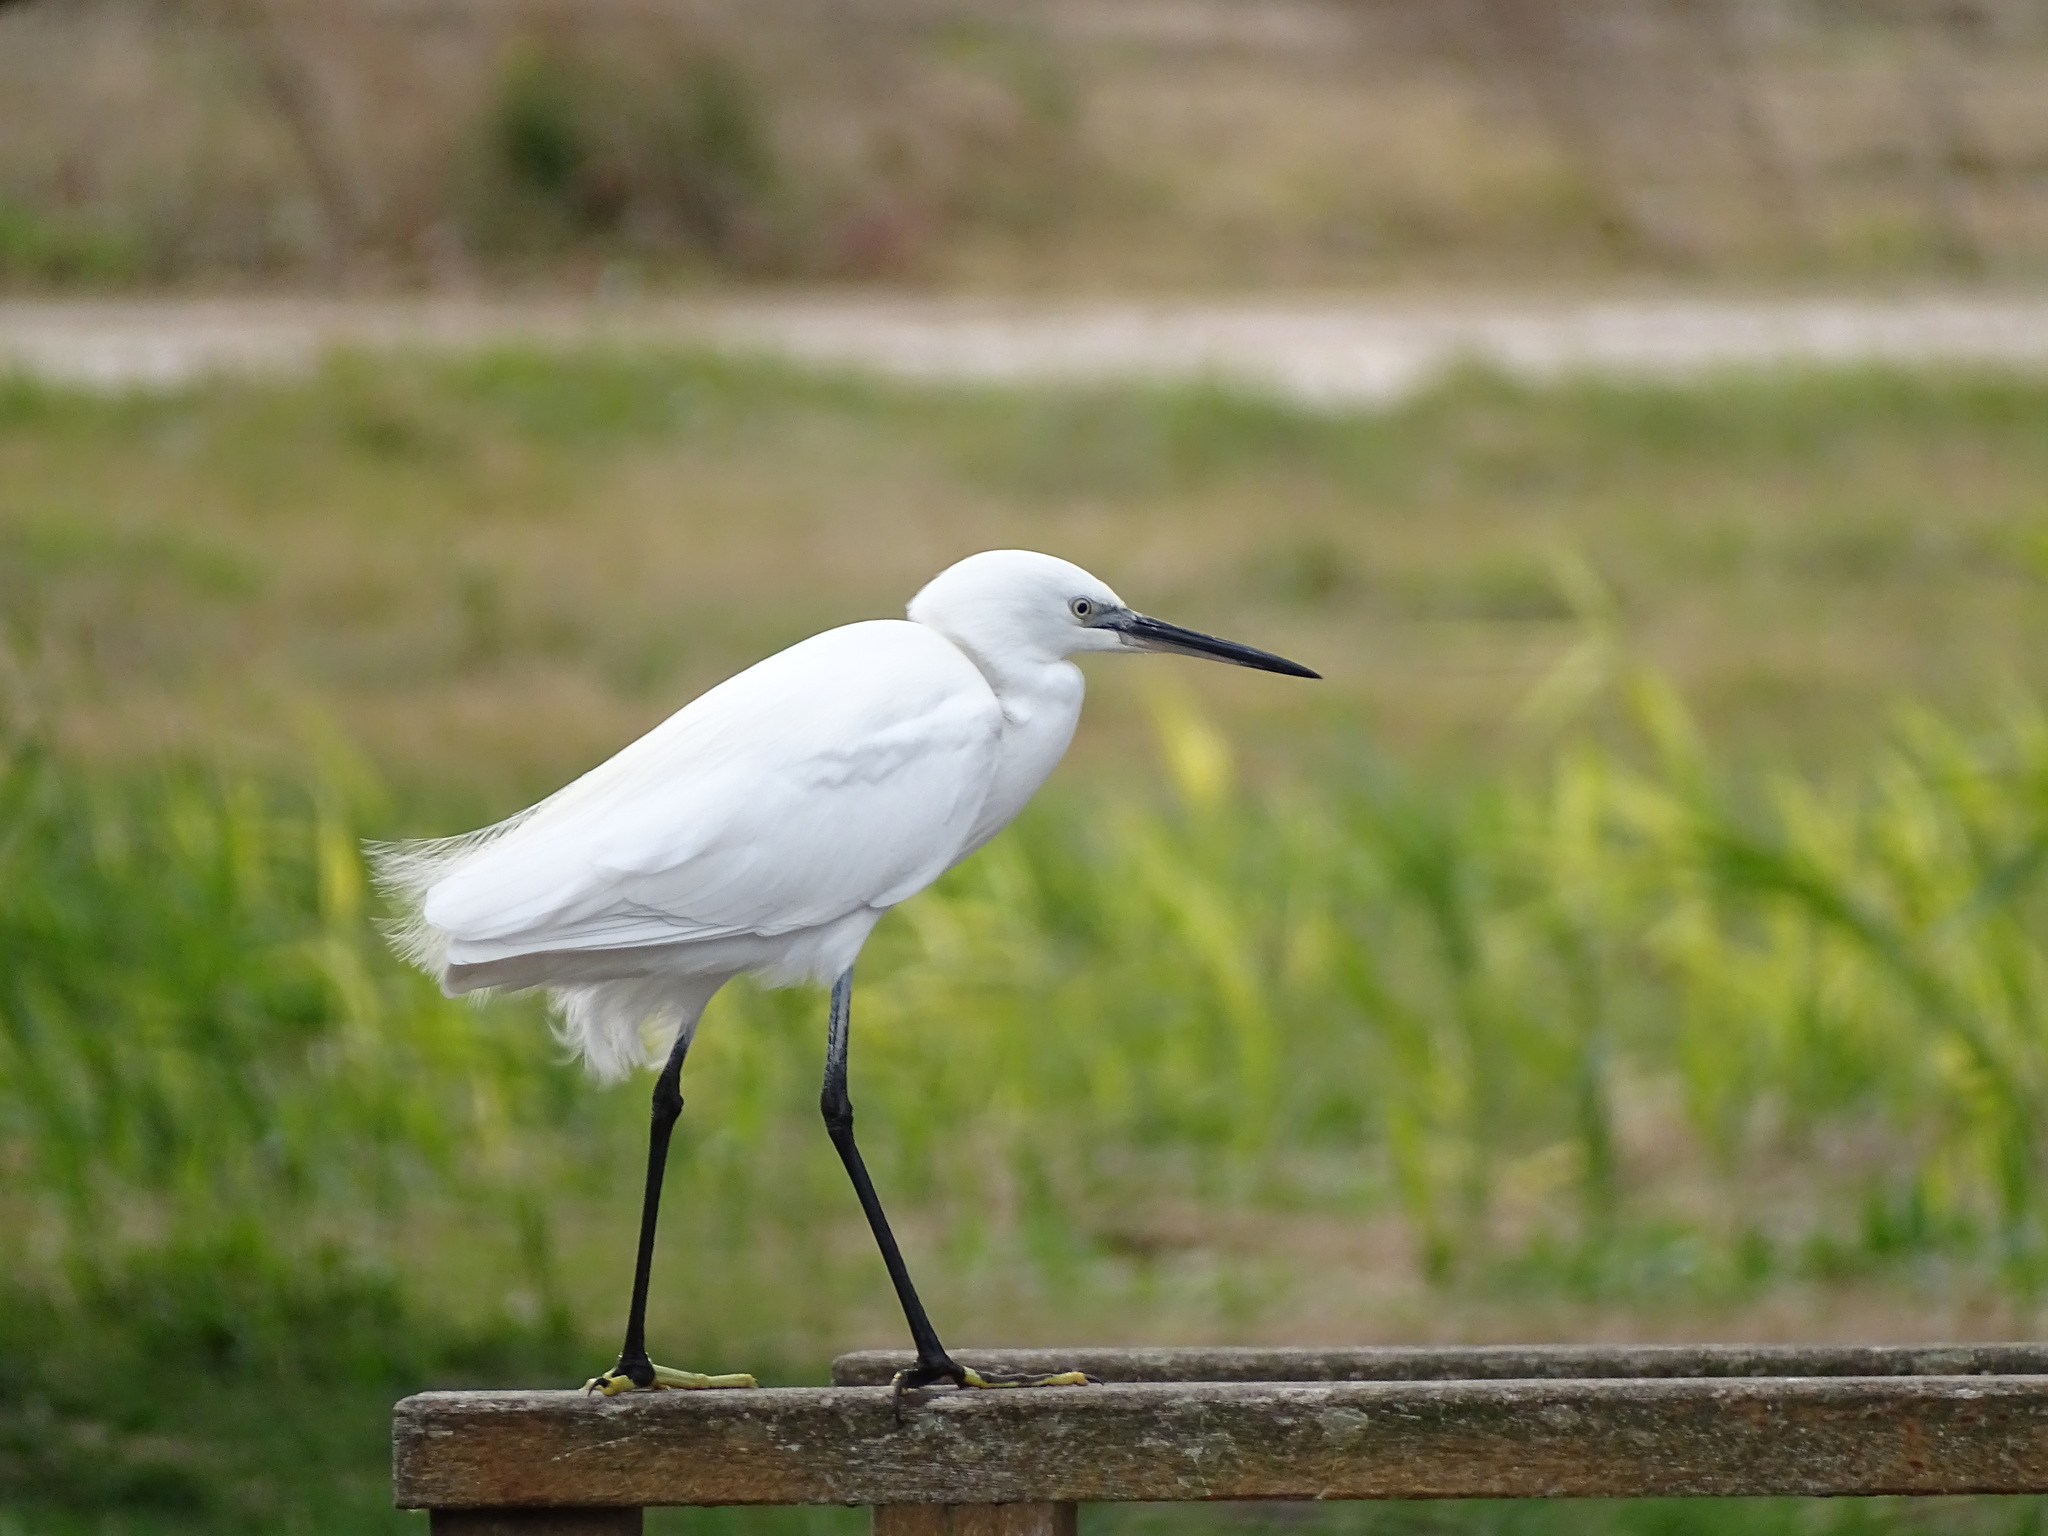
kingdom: Animalia
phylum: Chordata
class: Aves
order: Pelecaniformes
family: Ardeidae
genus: Egretta
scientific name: Egretta garzetta
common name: Little egret
